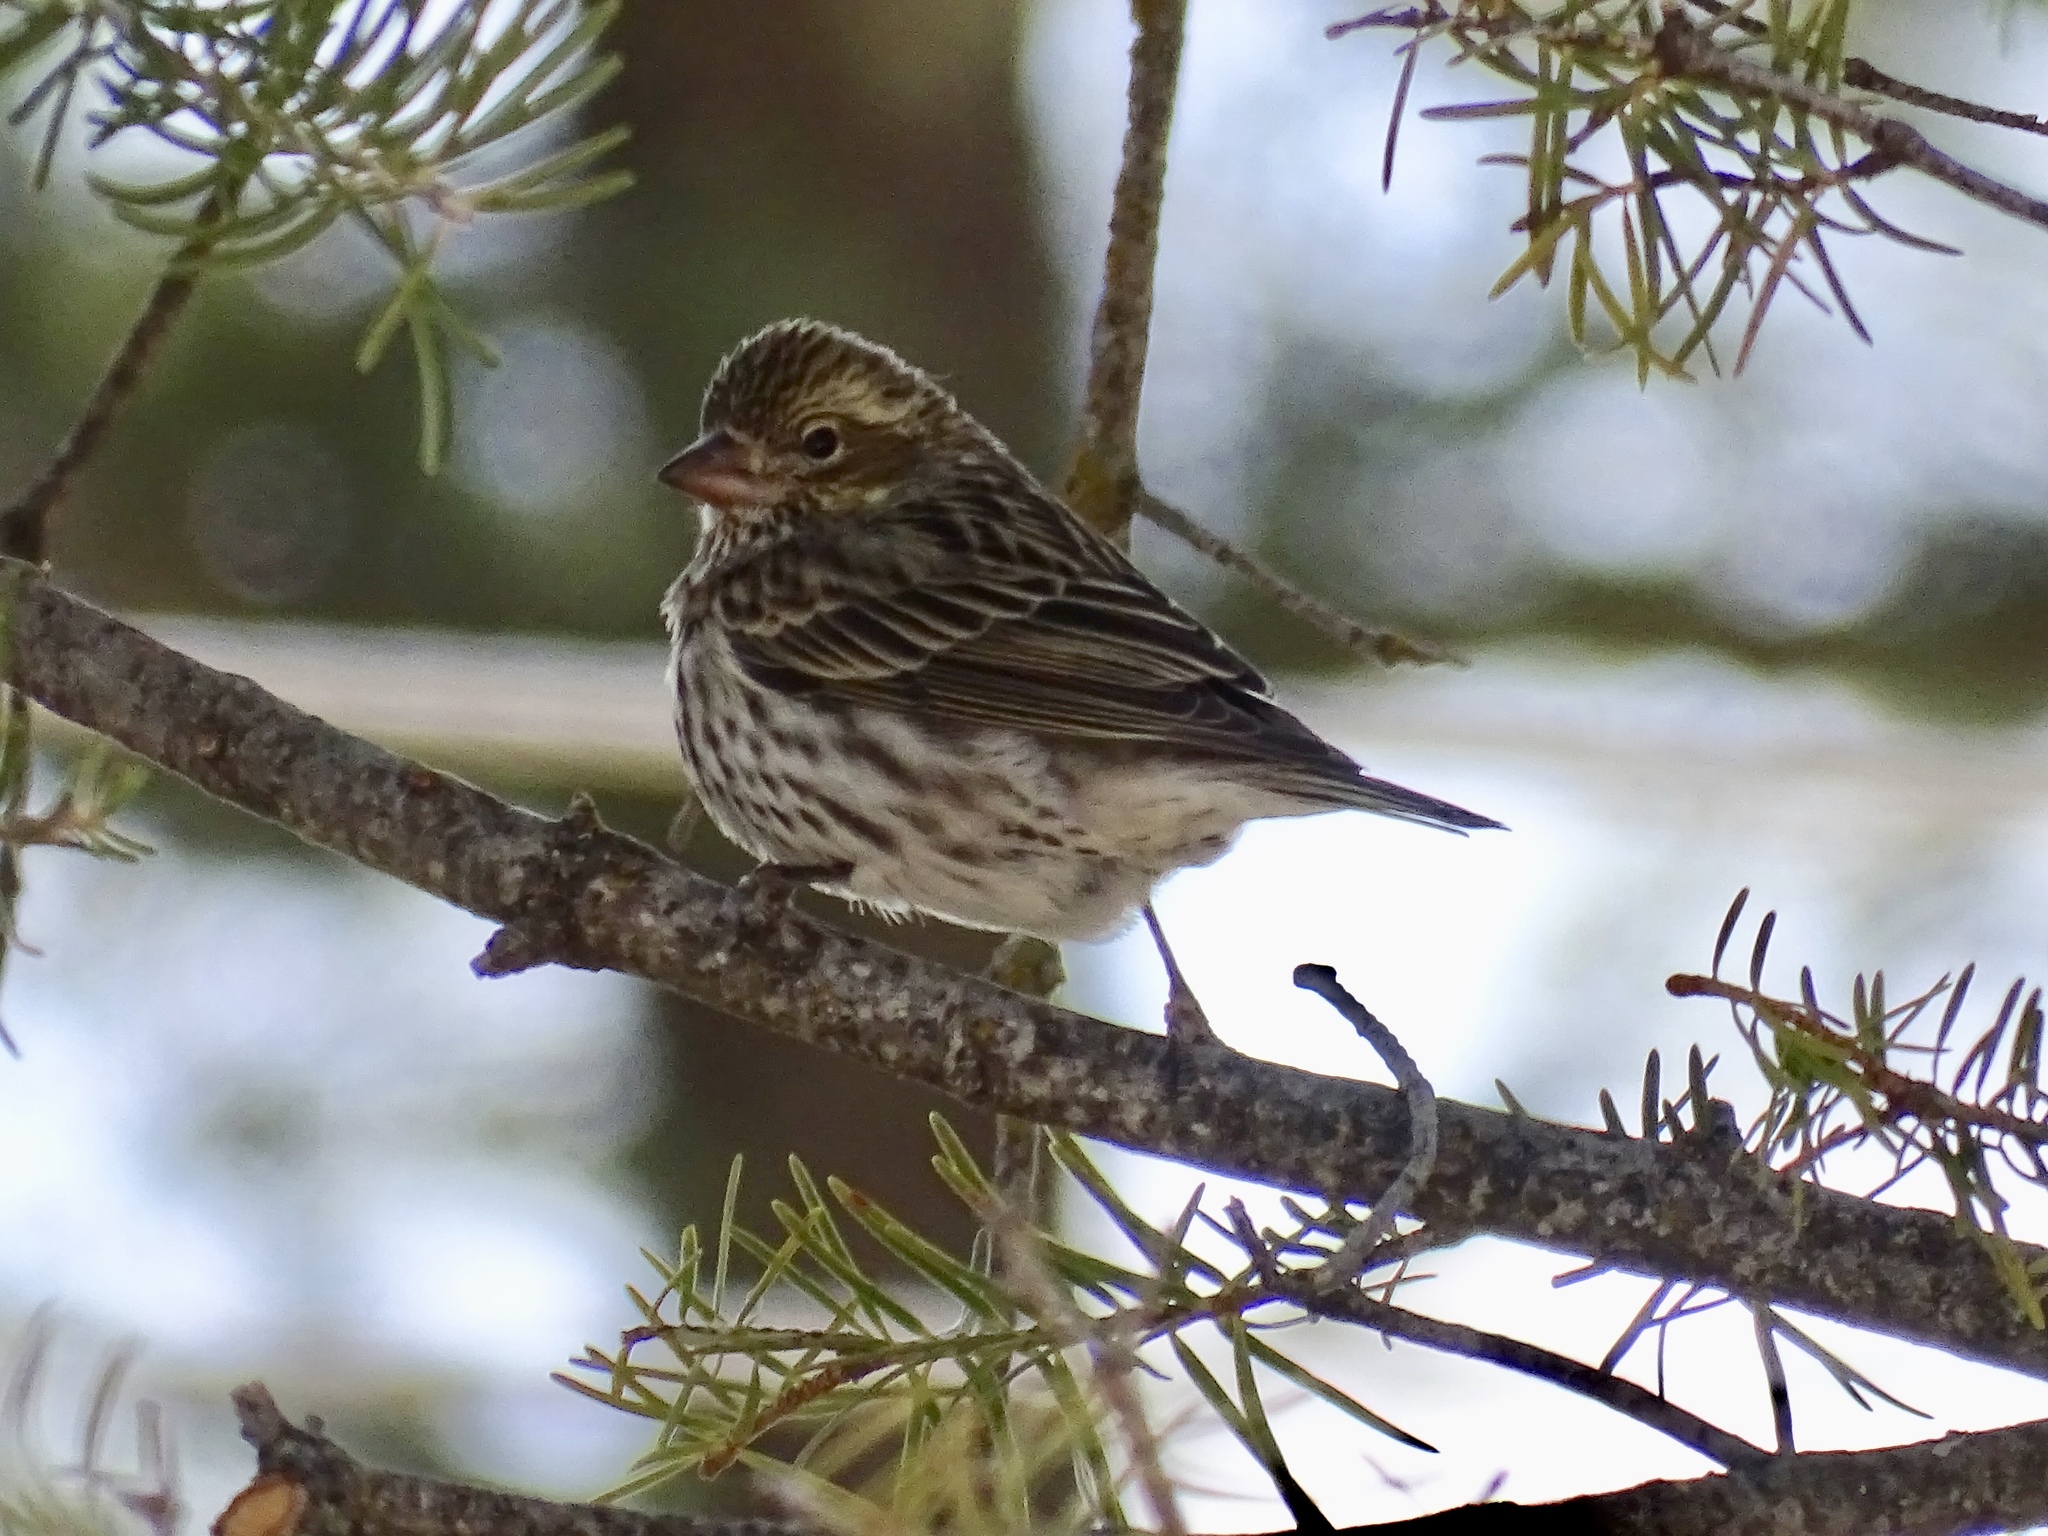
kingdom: Animalia
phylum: Chordata
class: Aves
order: Passeriformes
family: Fringillidae
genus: Haemorhous
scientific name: Haemorhous cassinii
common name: Cassin's finch
